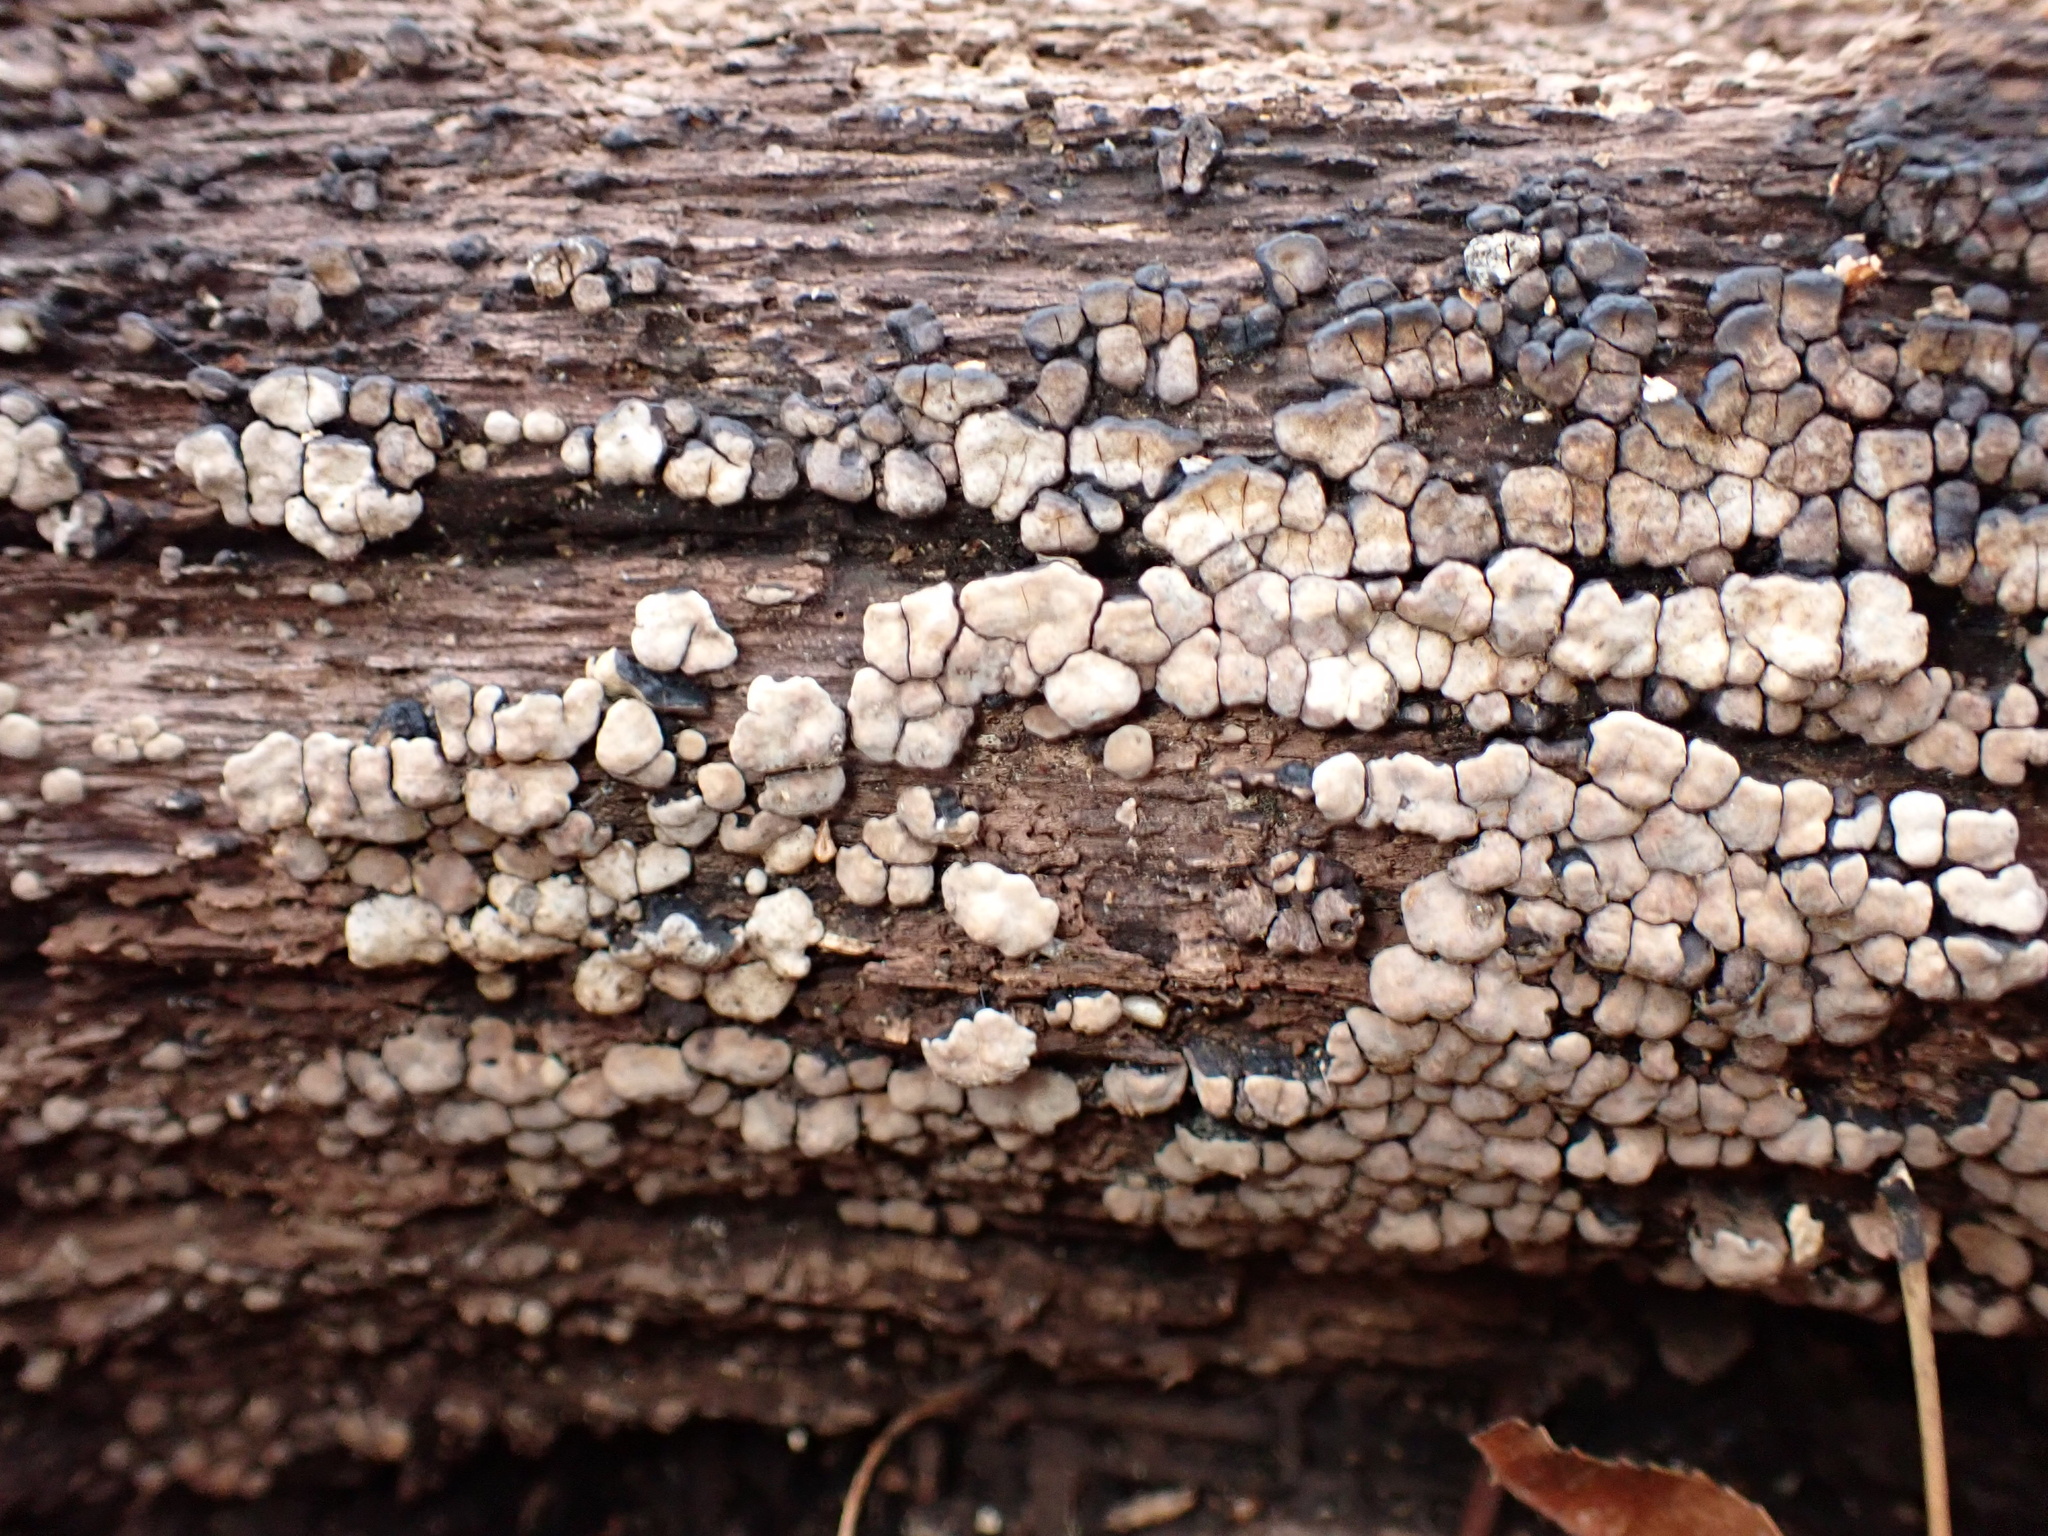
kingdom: Fungi
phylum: Basidiomycota
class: Agaricomycetes
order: Russulales
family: Stereaceae
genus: Xylobolus
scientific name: Xylobolus frustulatus
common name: Ceramic parchment
